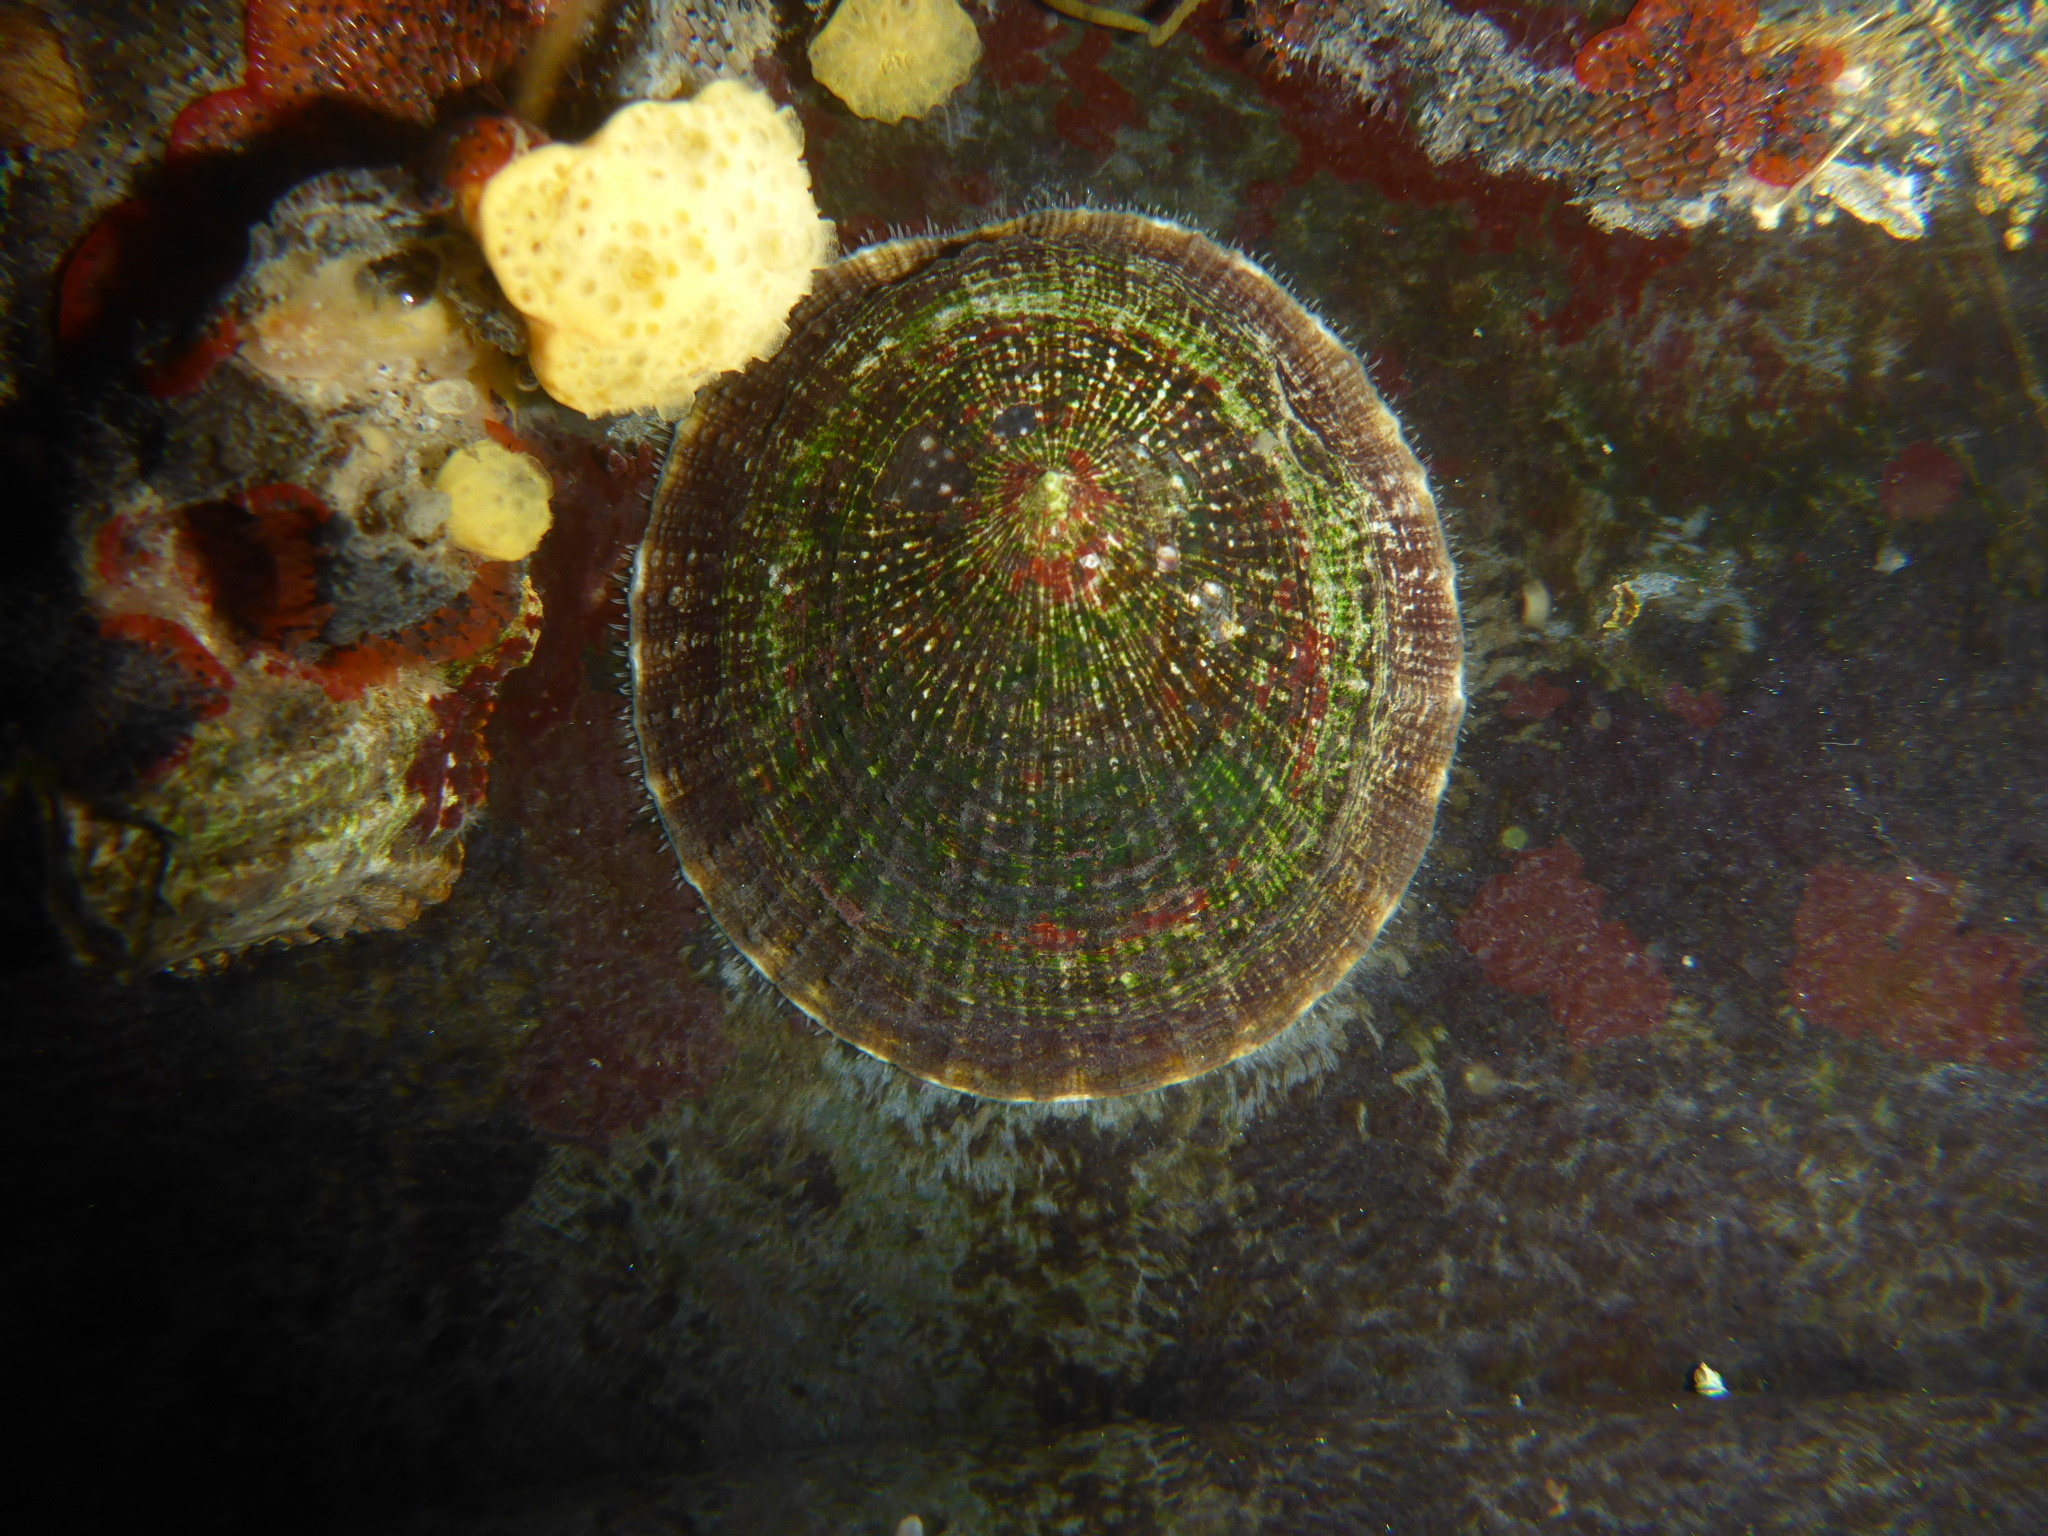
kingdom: Animalia
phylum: Mollusca
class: Gastropoda
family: Lottiidae
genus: Lottia
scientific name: Lottia limatula
